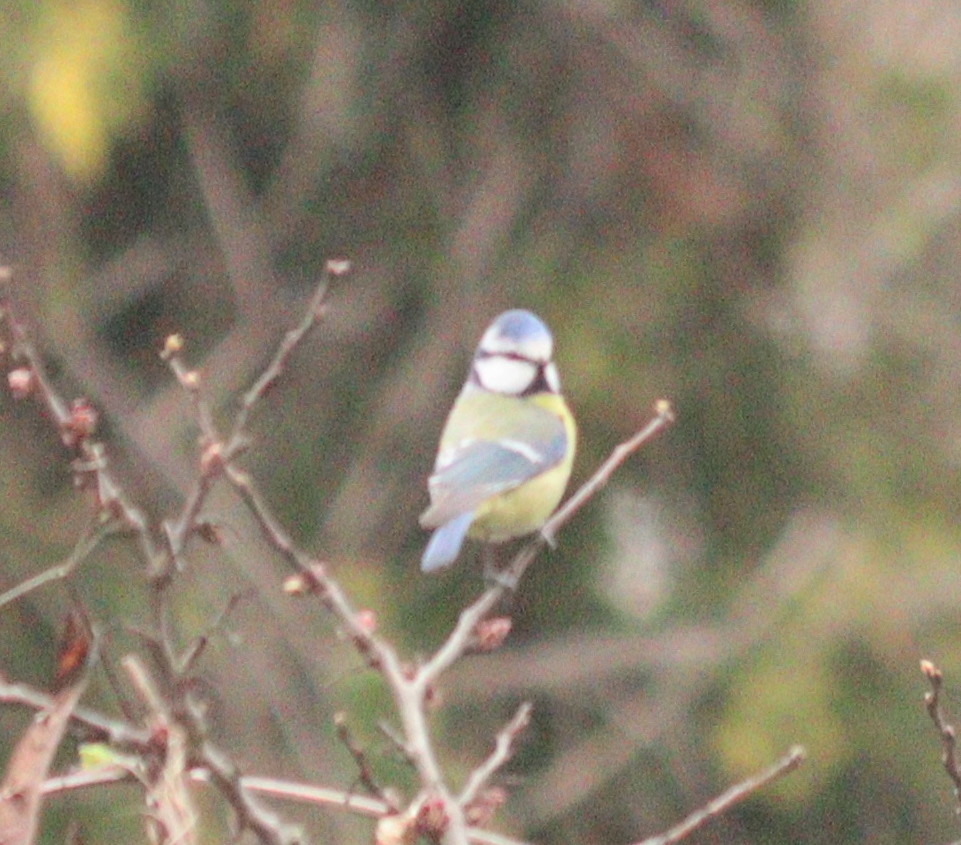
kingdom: Animalia
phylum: Chordata
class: Aves
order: Passeriformes
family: Paridae
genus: Cyanistes
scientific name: Cyanistes caeruleus
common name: Eurasian blue tit
